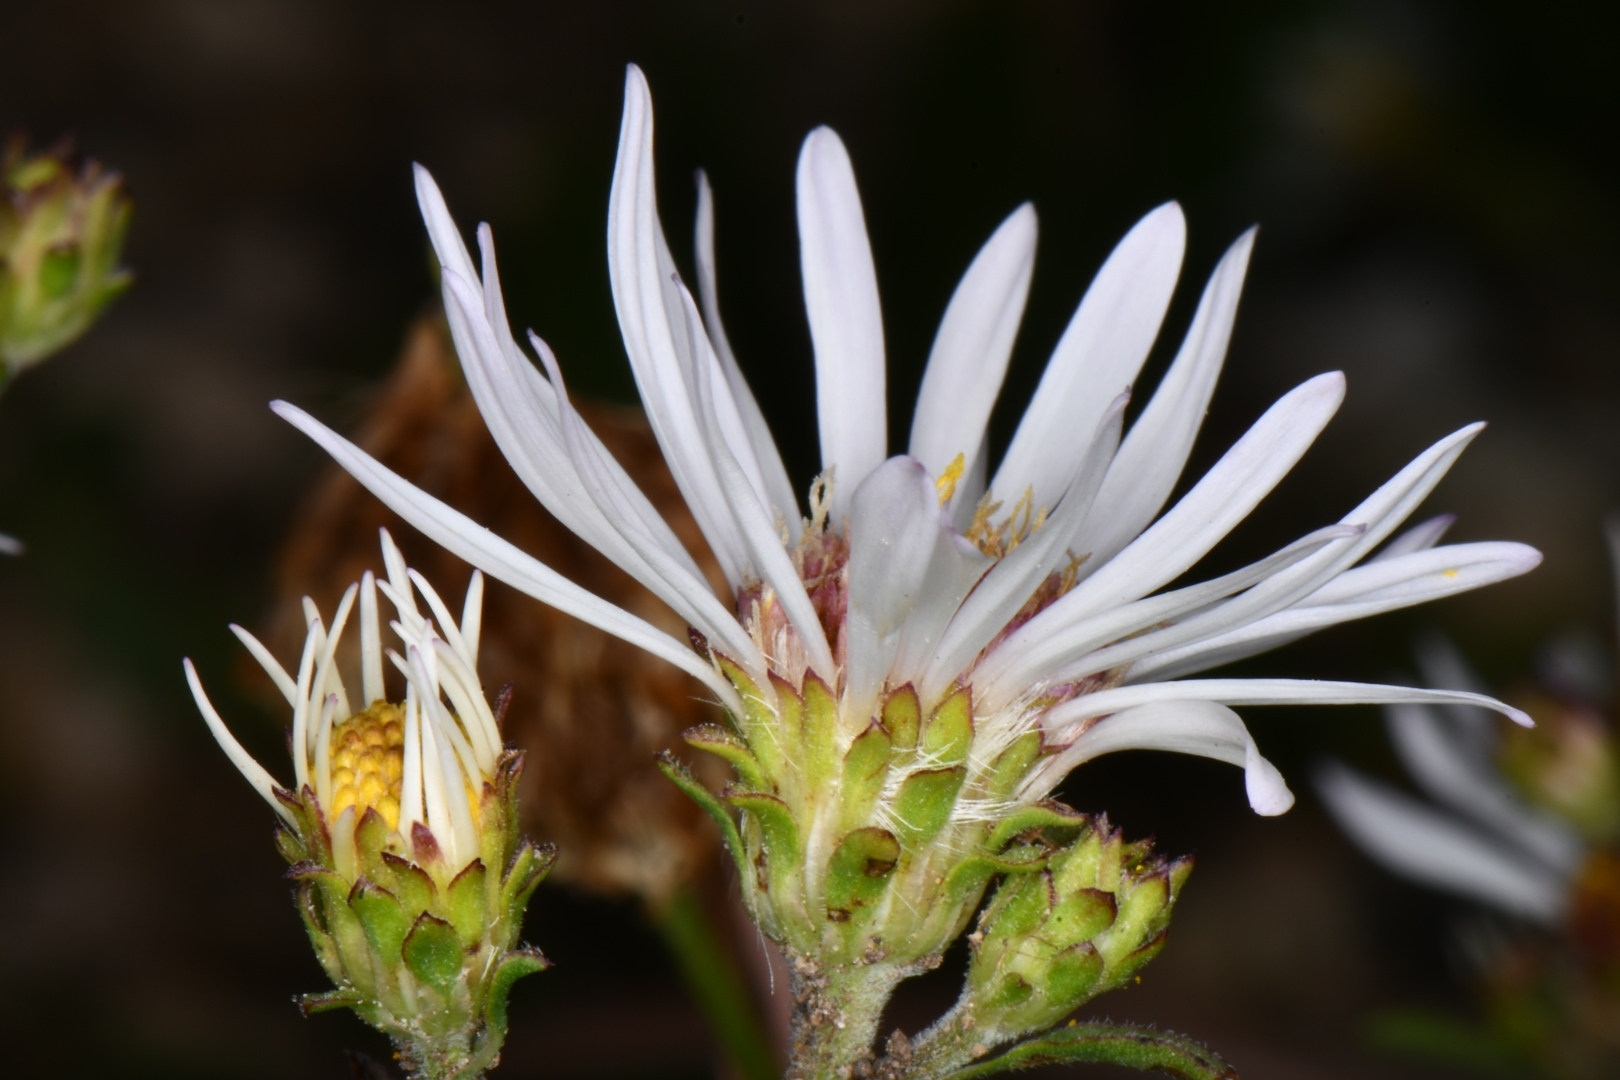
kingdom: Plantae
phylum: Tracheophyta
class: Magnoliopsida
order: Asterales
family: Asteraceae
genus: Symphyotrichum
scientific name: Symphyotrichum spathulatum
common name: Western mountain aster
